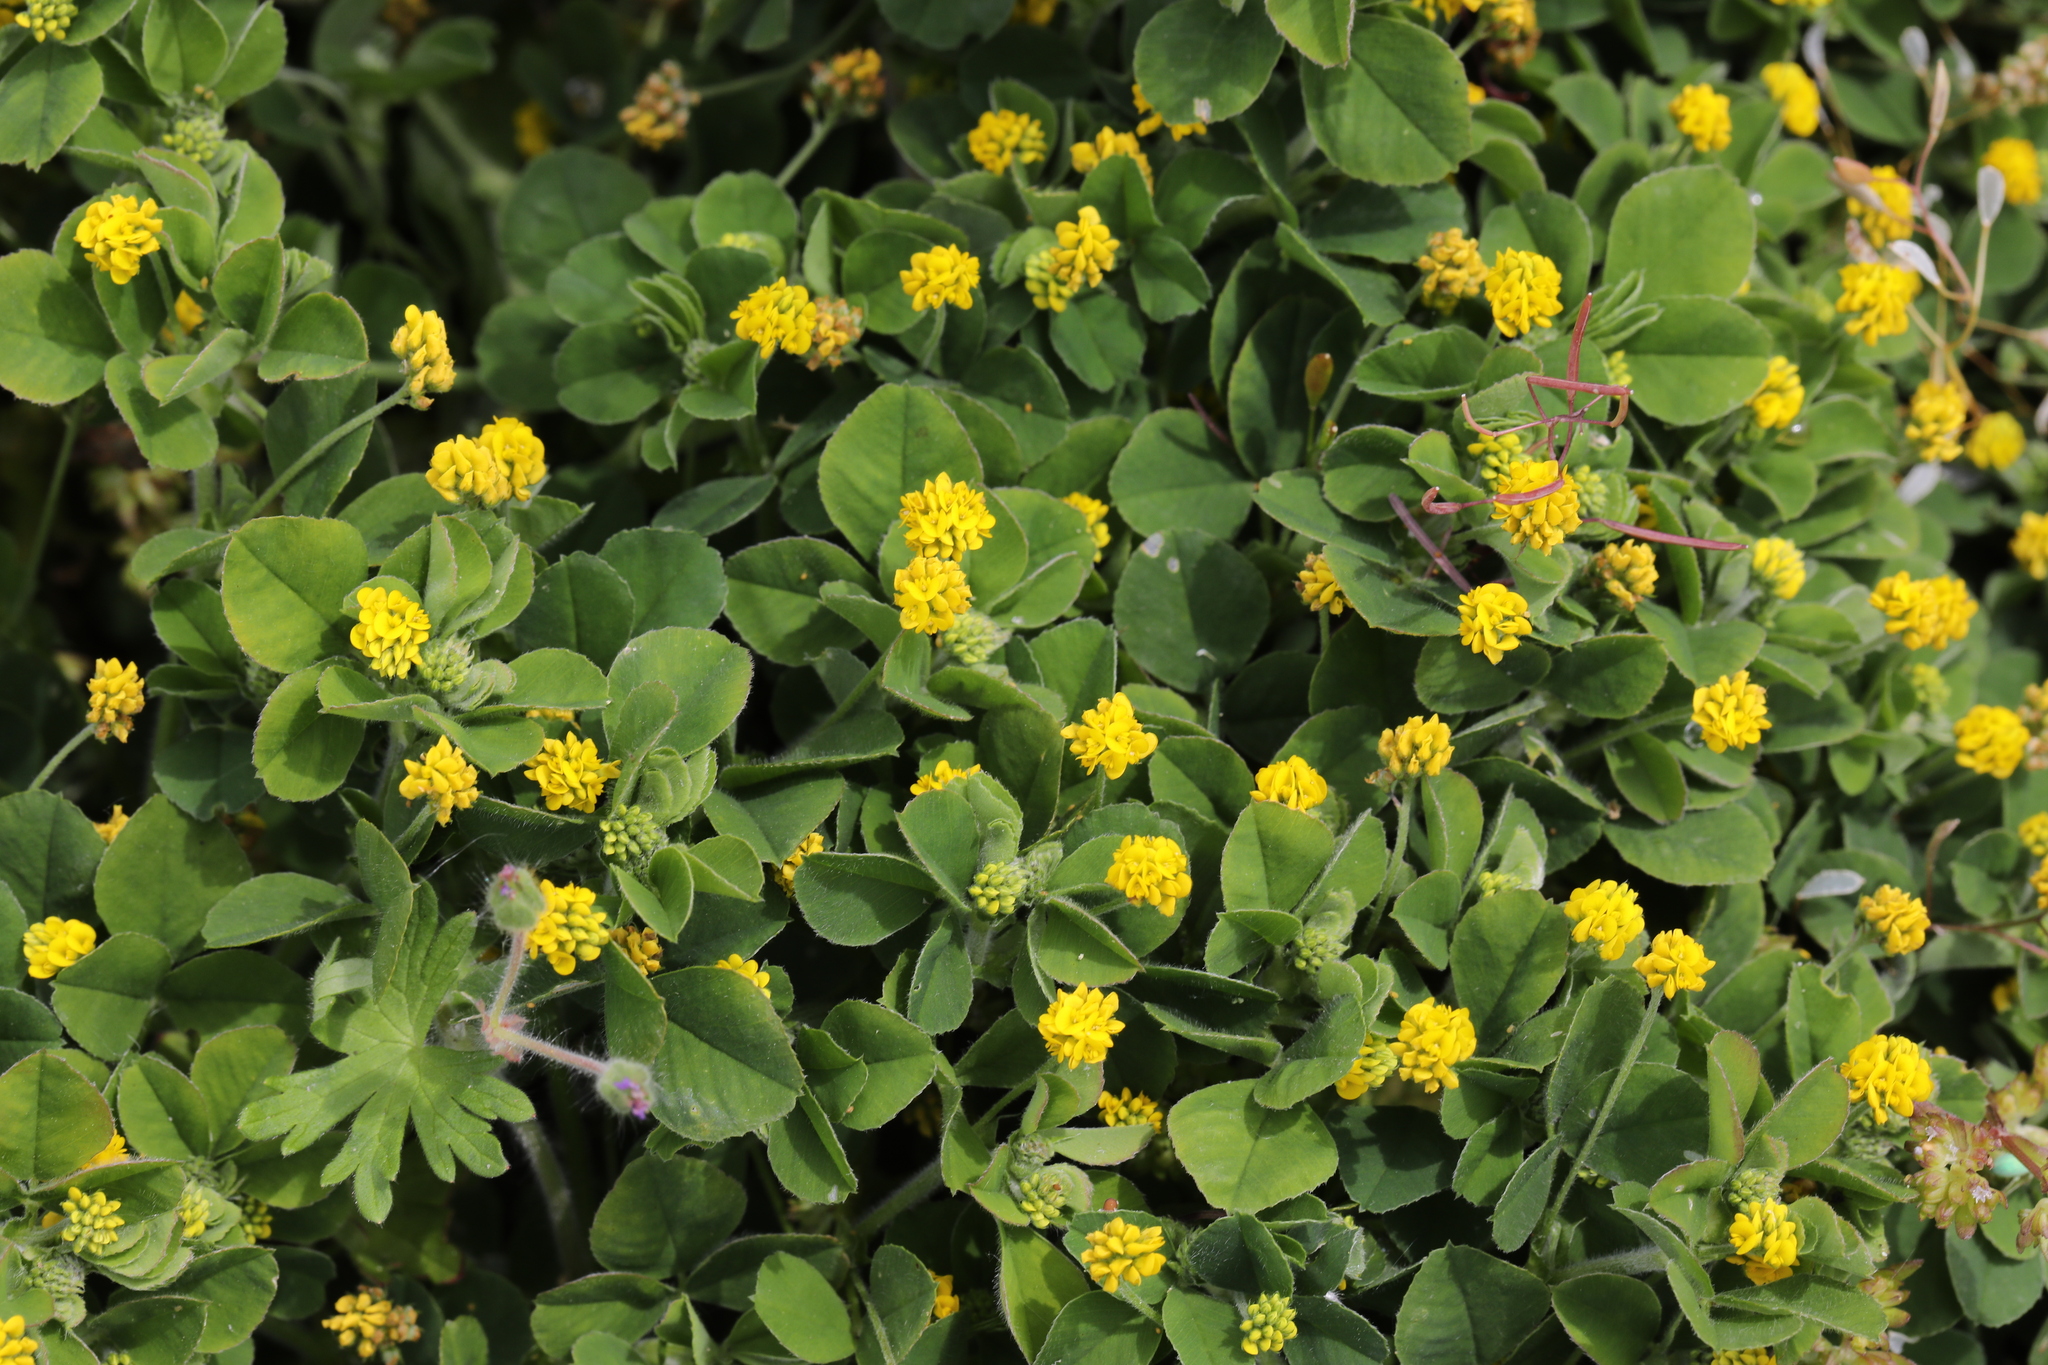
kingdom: Plantae
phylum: Tracheophyta
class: Magnoliopsida
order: Fabales
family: Fabaceae
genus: Medicago
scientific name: Medicago lupulina
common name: Black medick
